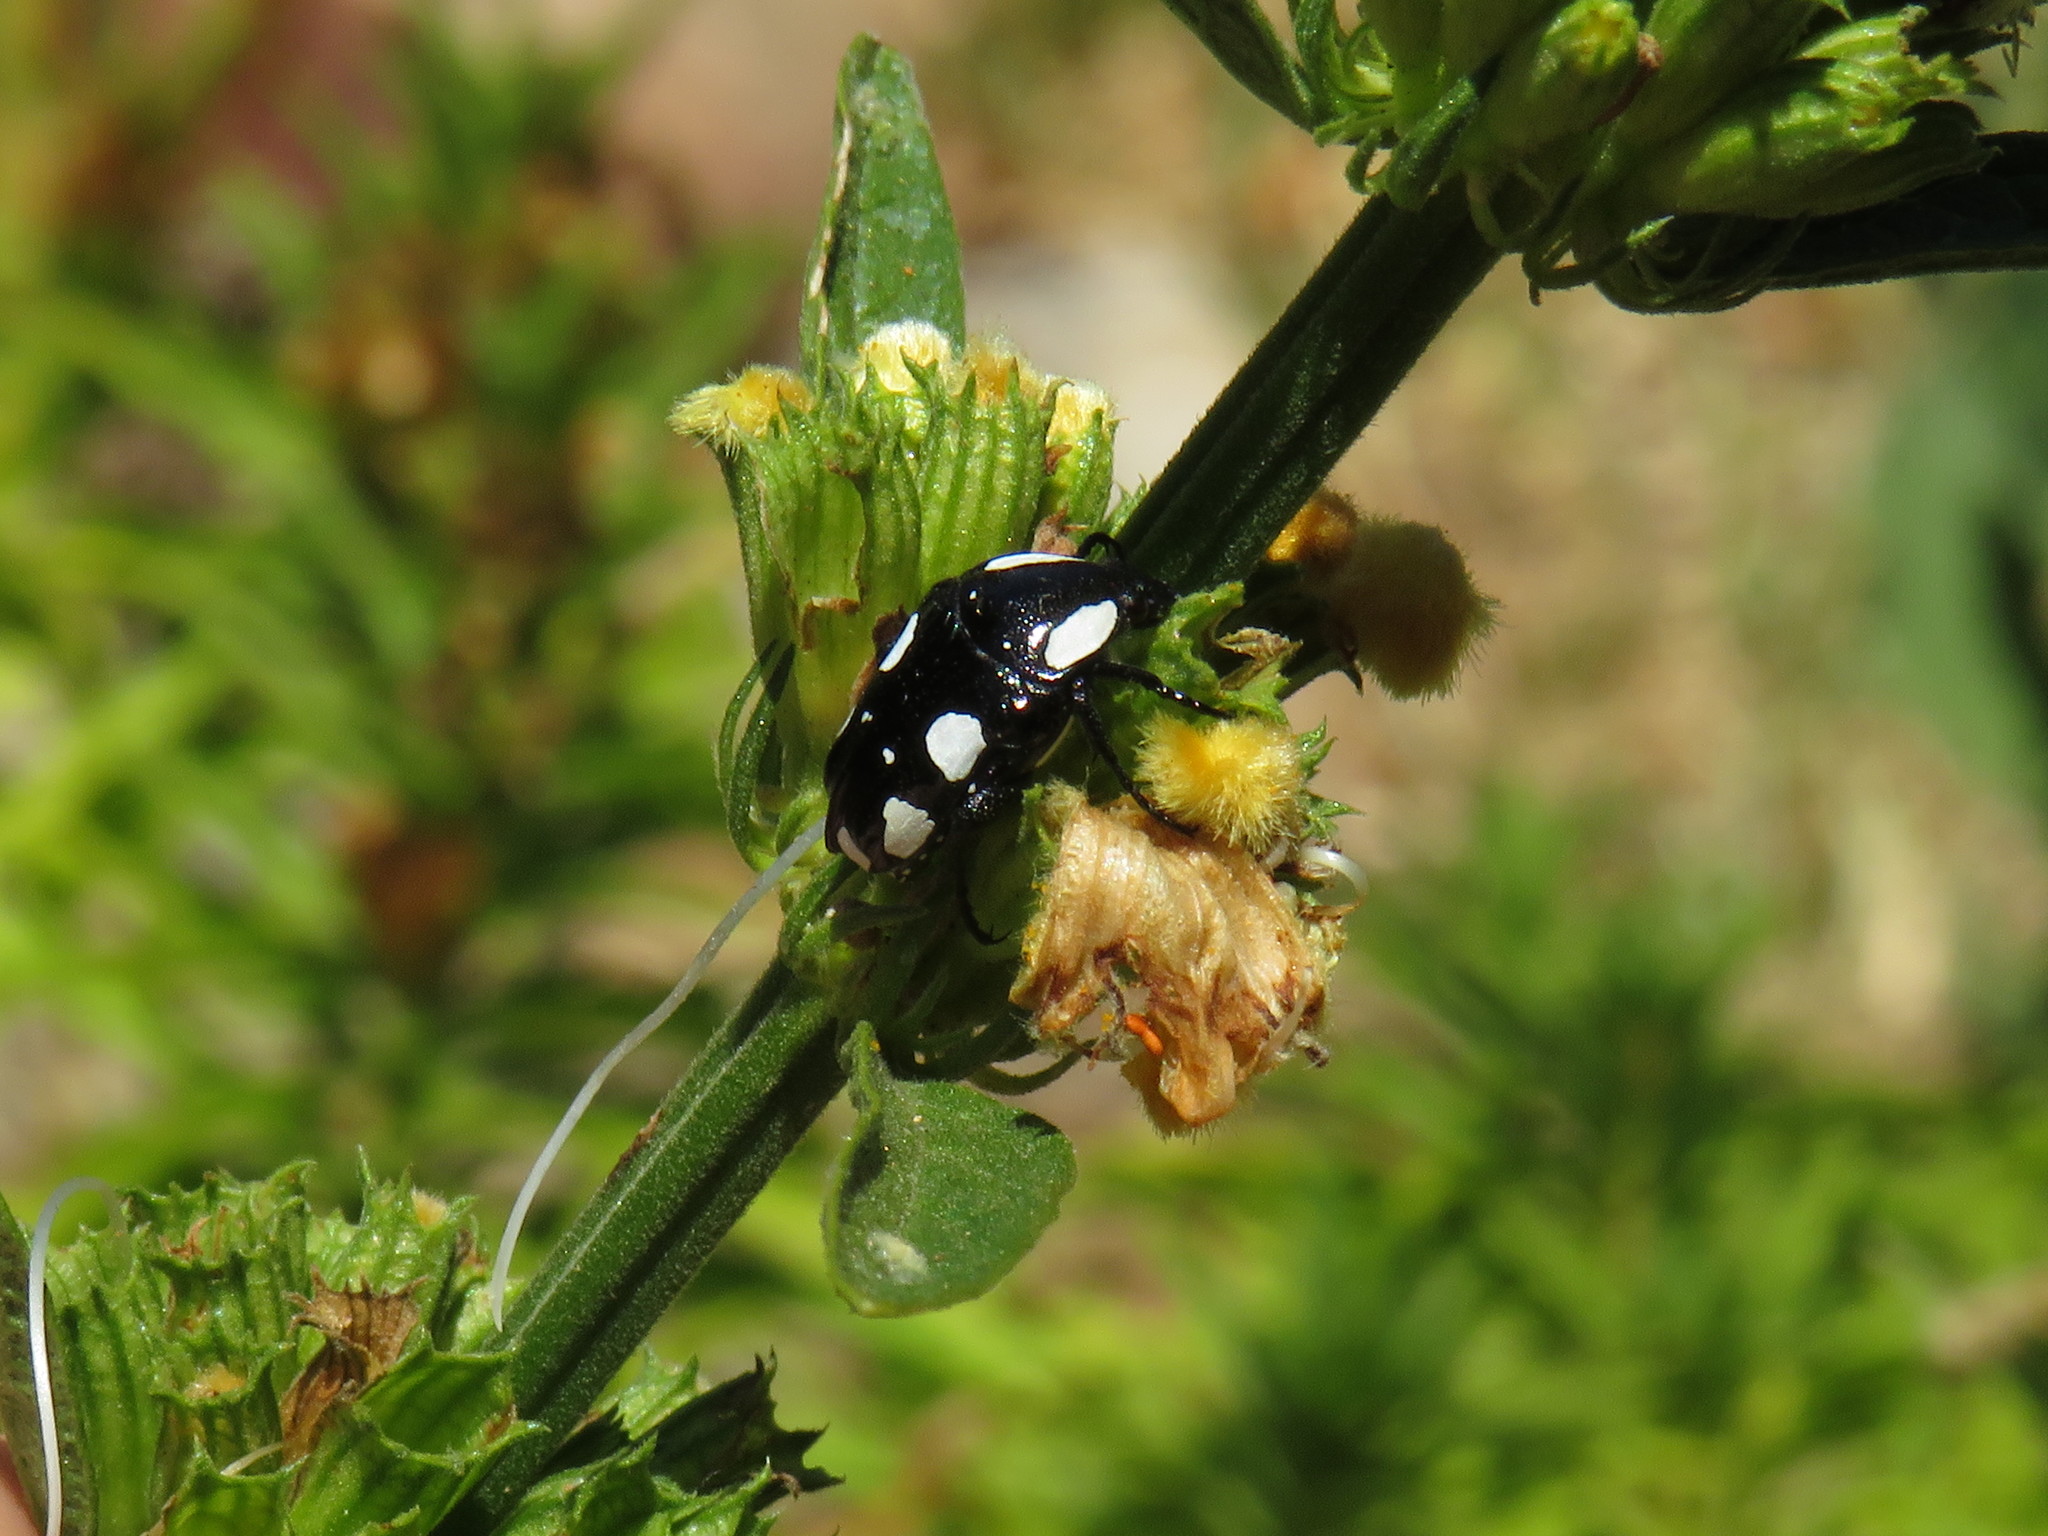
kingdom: Animalia
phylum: Arthropoda
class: Insecta
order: Coleoptera
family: Scarabaeidae
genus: Mausoleopsis
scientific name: Mausoleopsis amabilis
